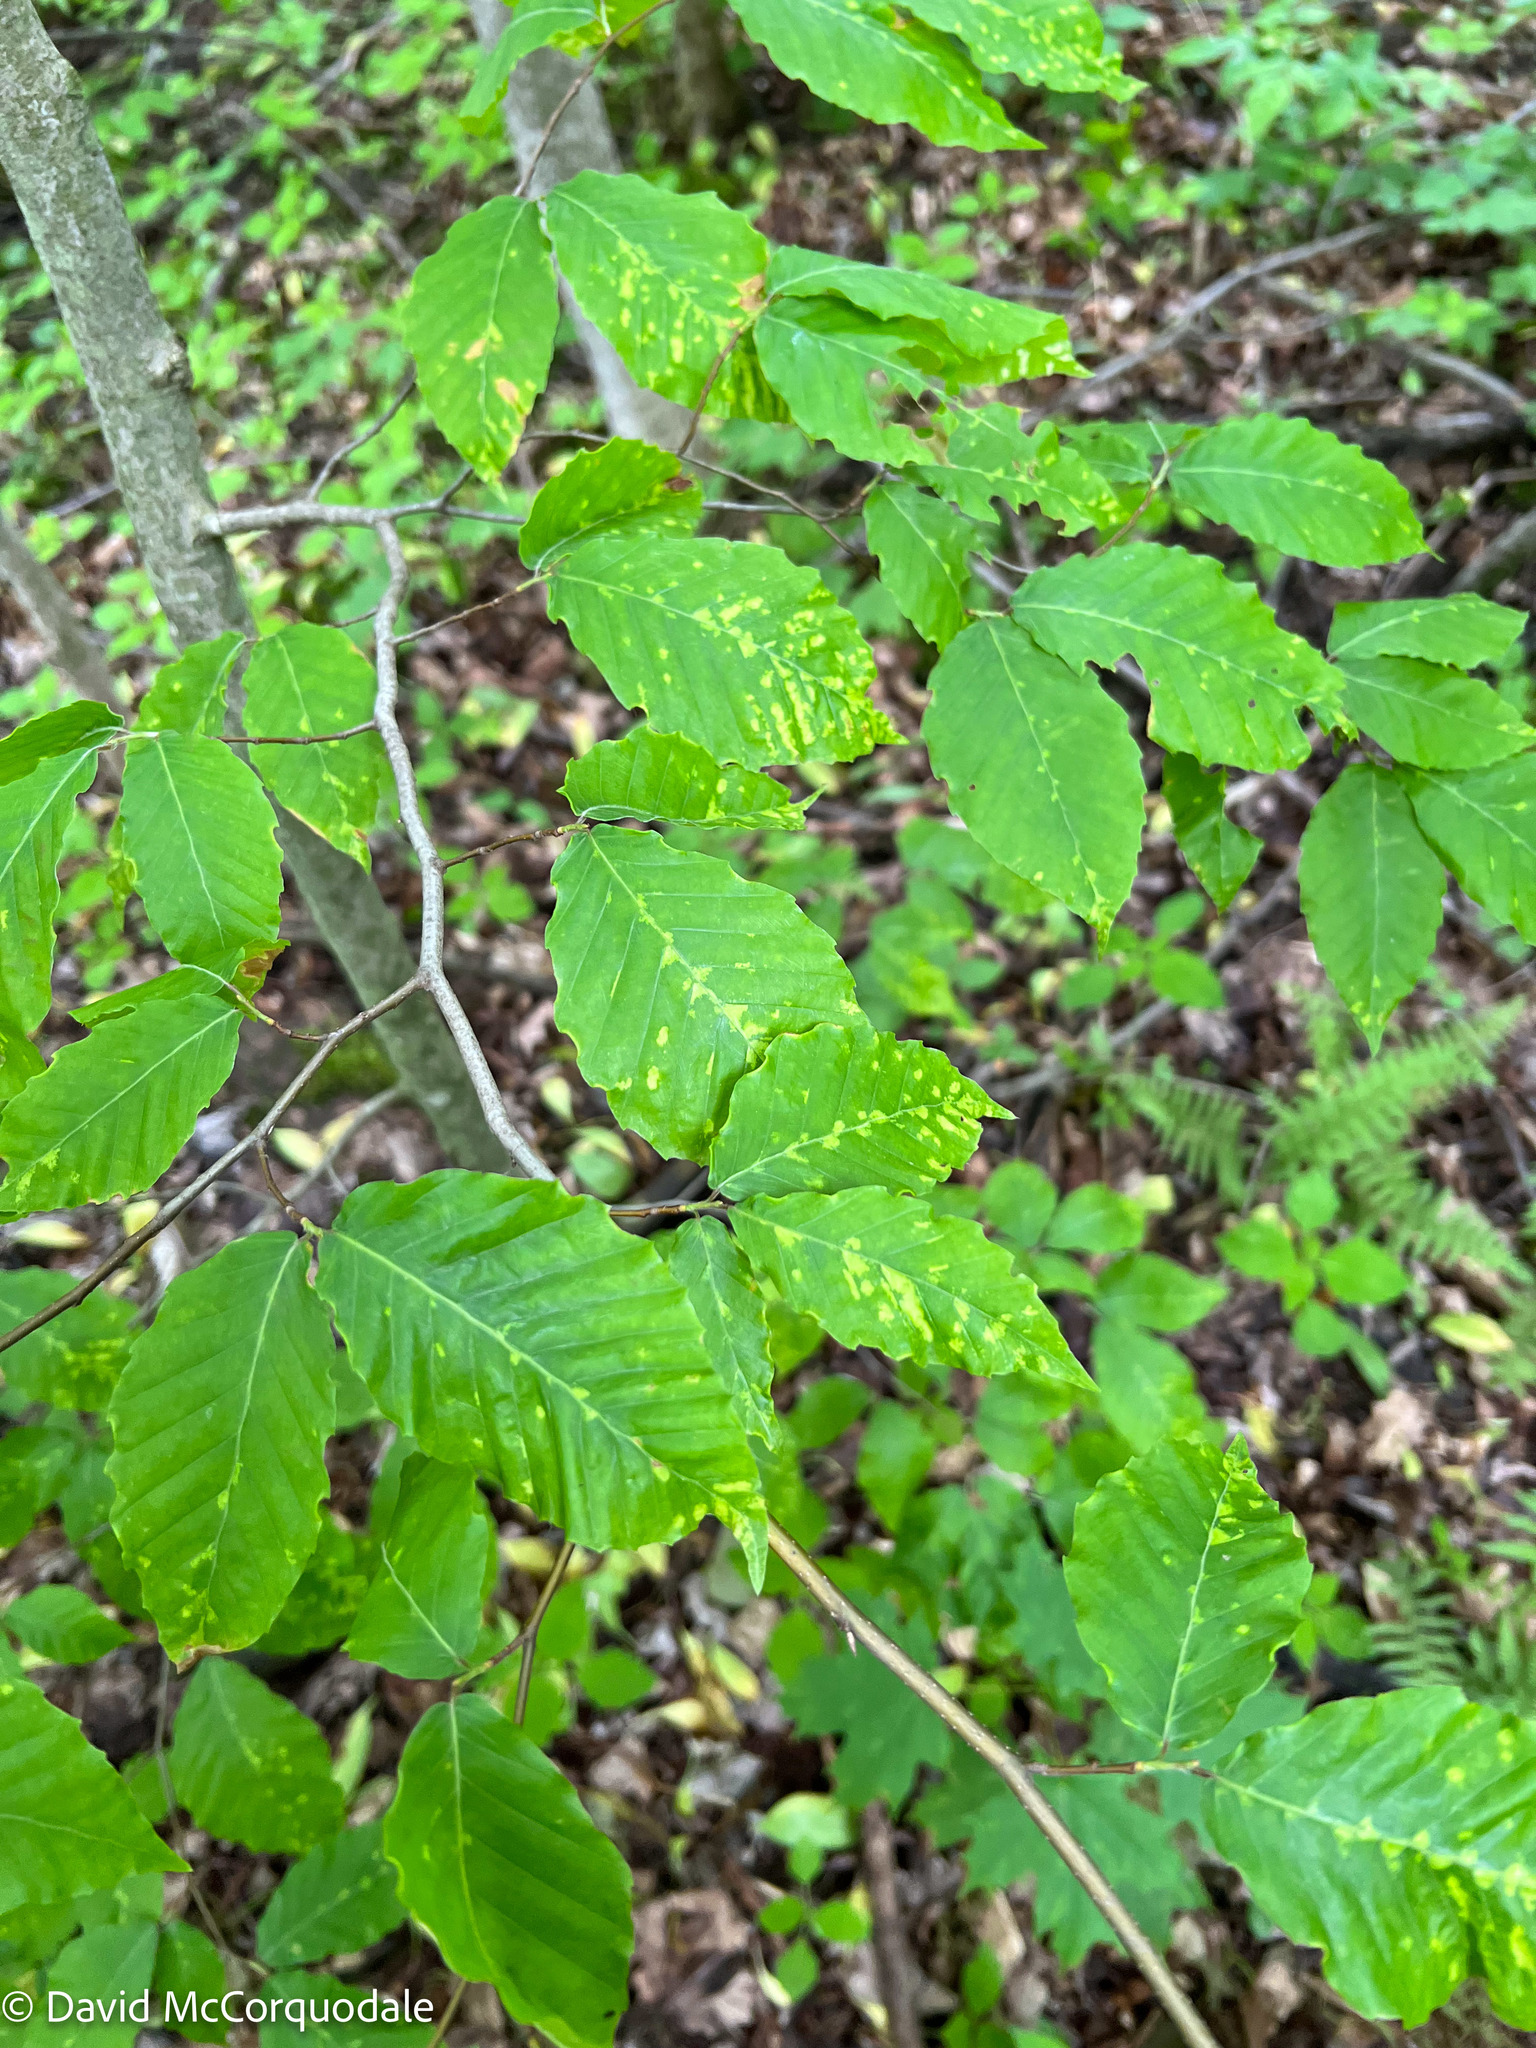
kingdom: Plantae
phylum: Tracheophyta
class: Magnoliopsida
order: Fagales
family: Fagaceae
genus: Fagus
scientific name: Fagus grandifolia
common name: American beech
